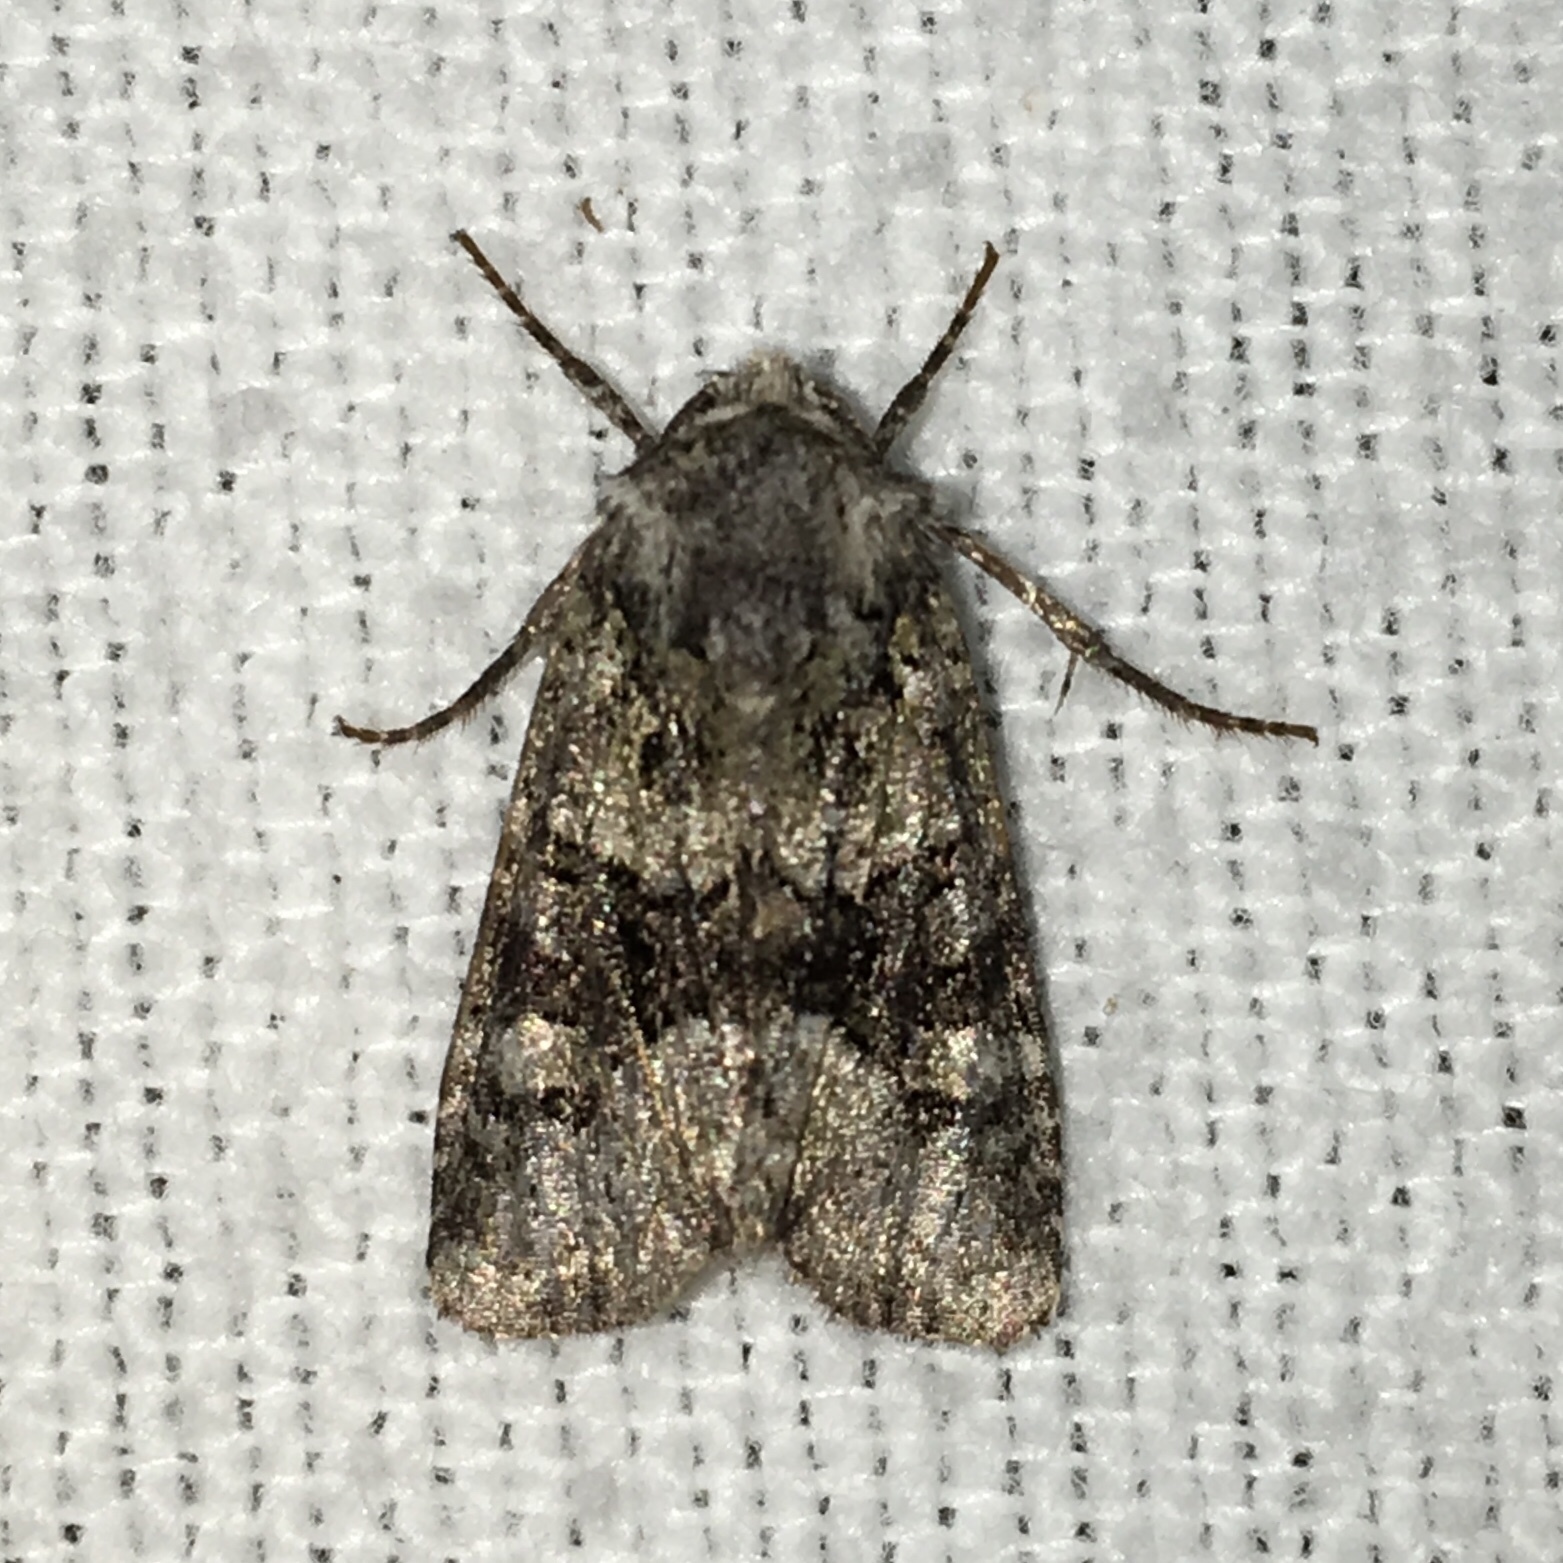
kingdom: Animalia
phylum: Arthropoda
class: Insecta
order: Lepidoptera
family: Noctuidae
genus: Lacinipolia
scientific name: Lacinipolia olivacea
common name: Olive arches moth
